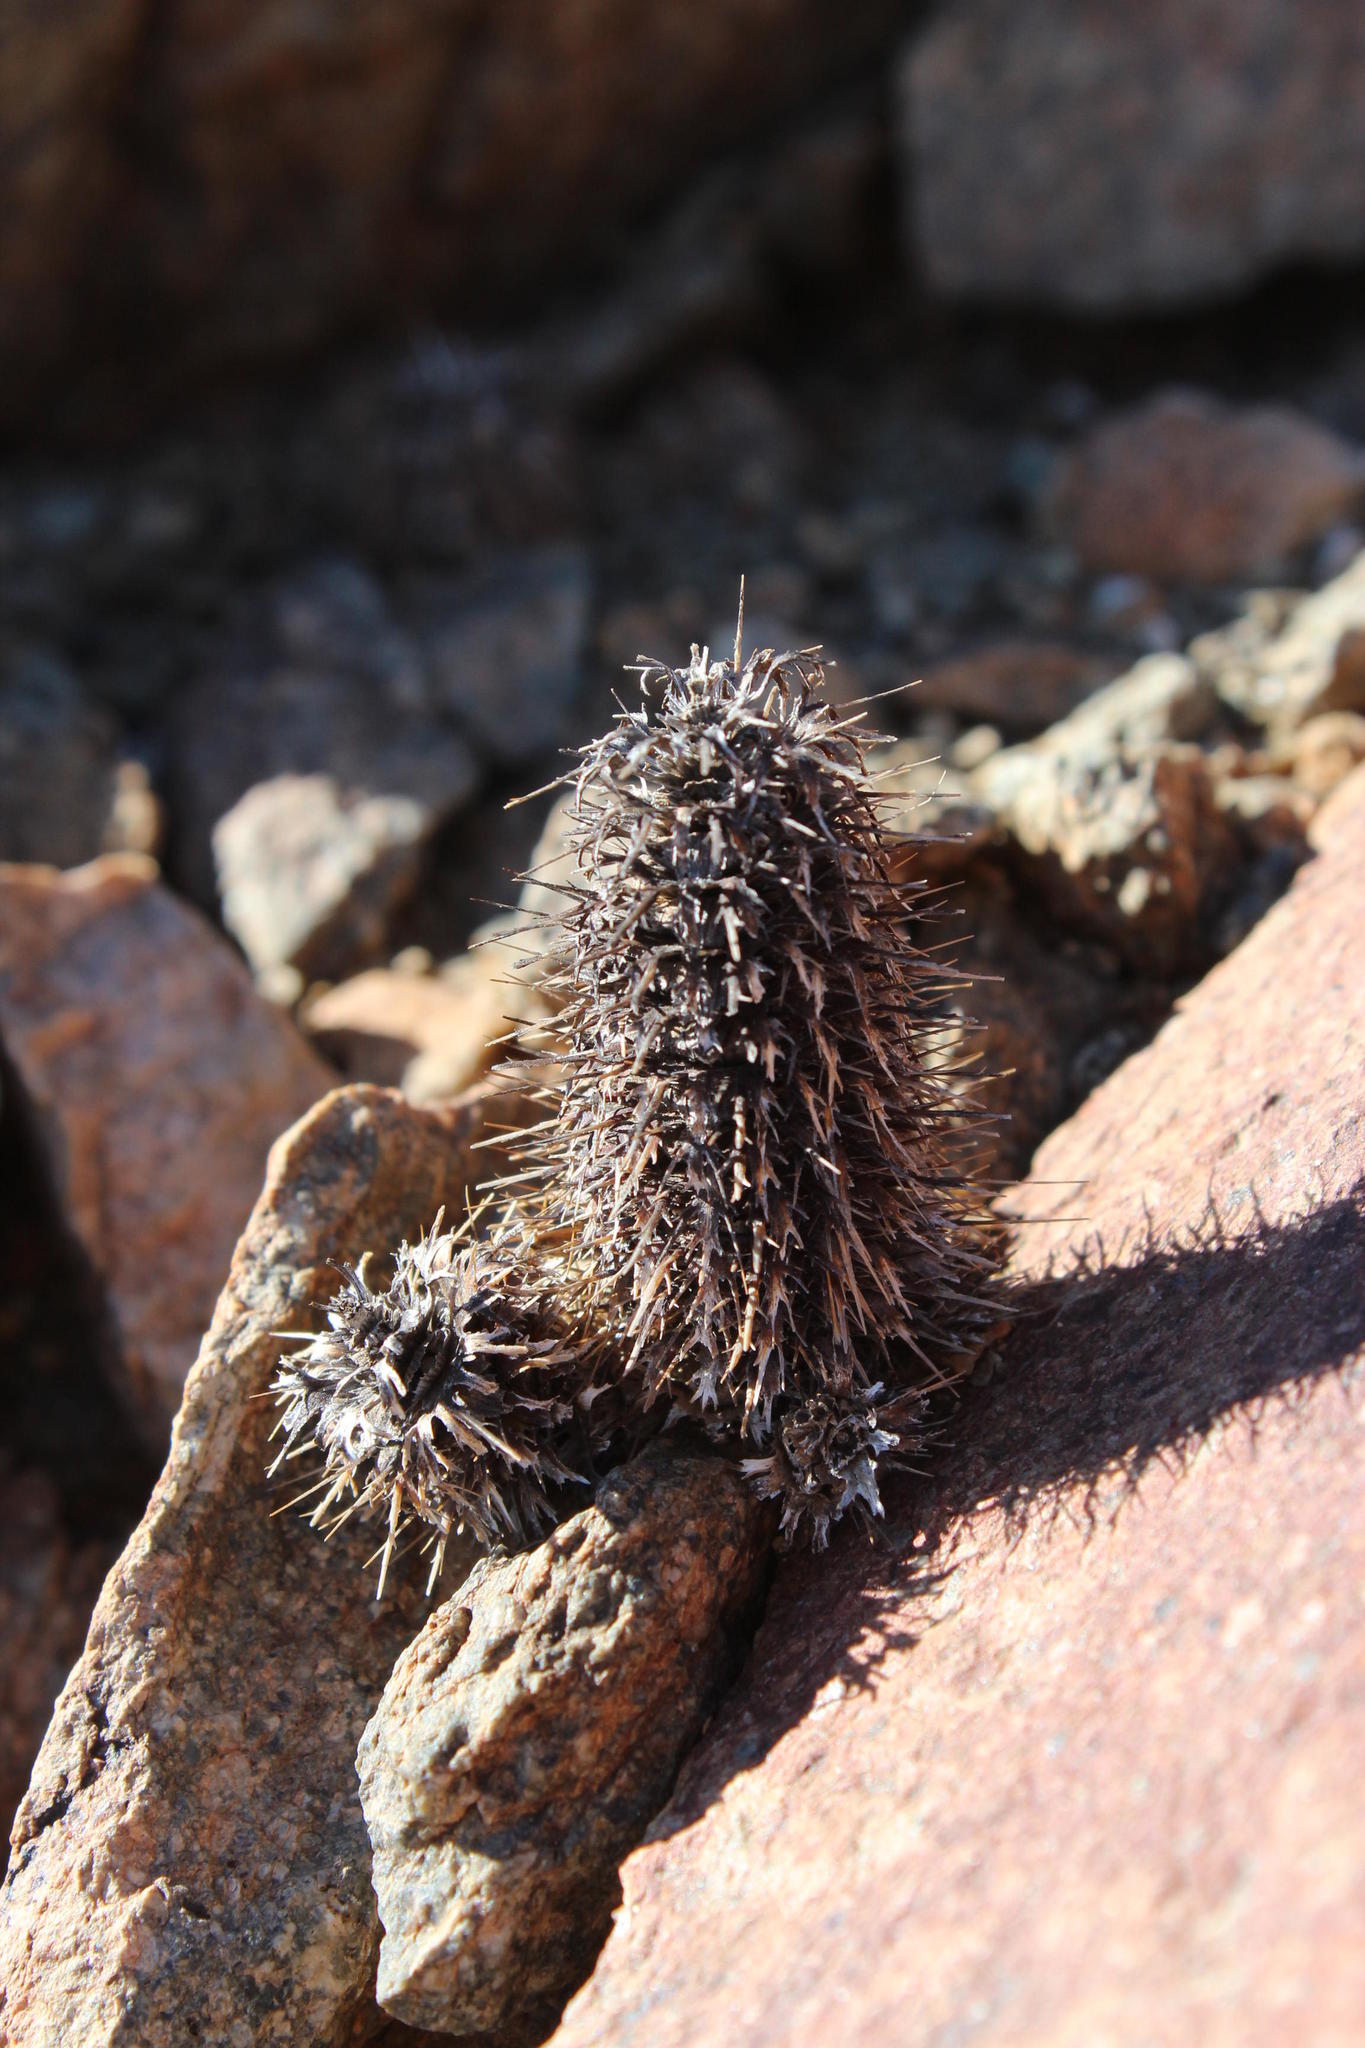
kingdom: Plantae
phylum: Tracheophyta
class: Magnoliopsida
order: Lamiales
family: Acanthaceae
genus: Acanthopsis
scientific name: Acanthopsis disperma
